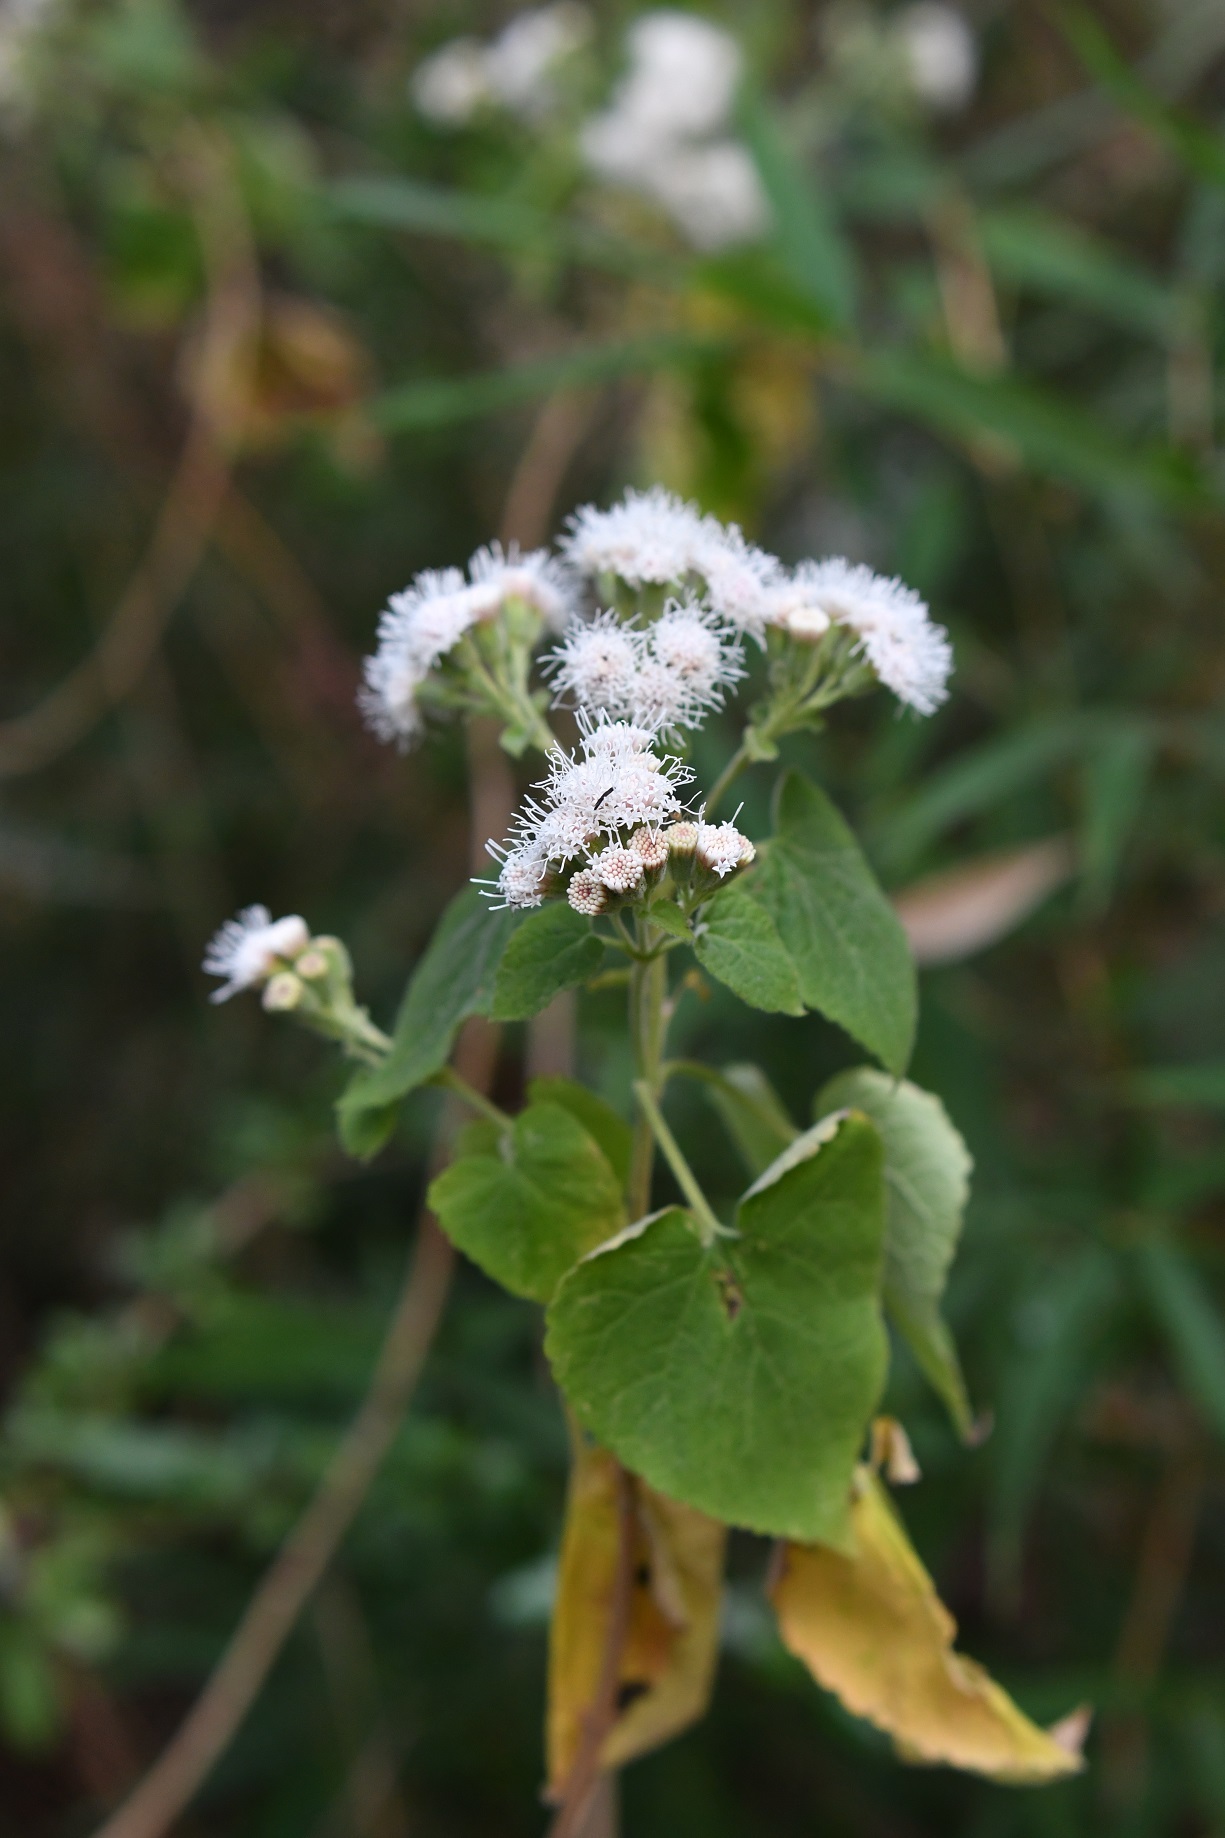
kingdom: Plantae
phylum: Tracheophyta
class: Magnoliopsida
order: Asterales
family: Asteraceae
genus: Ageratina
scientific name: Ageratina petiolaris
